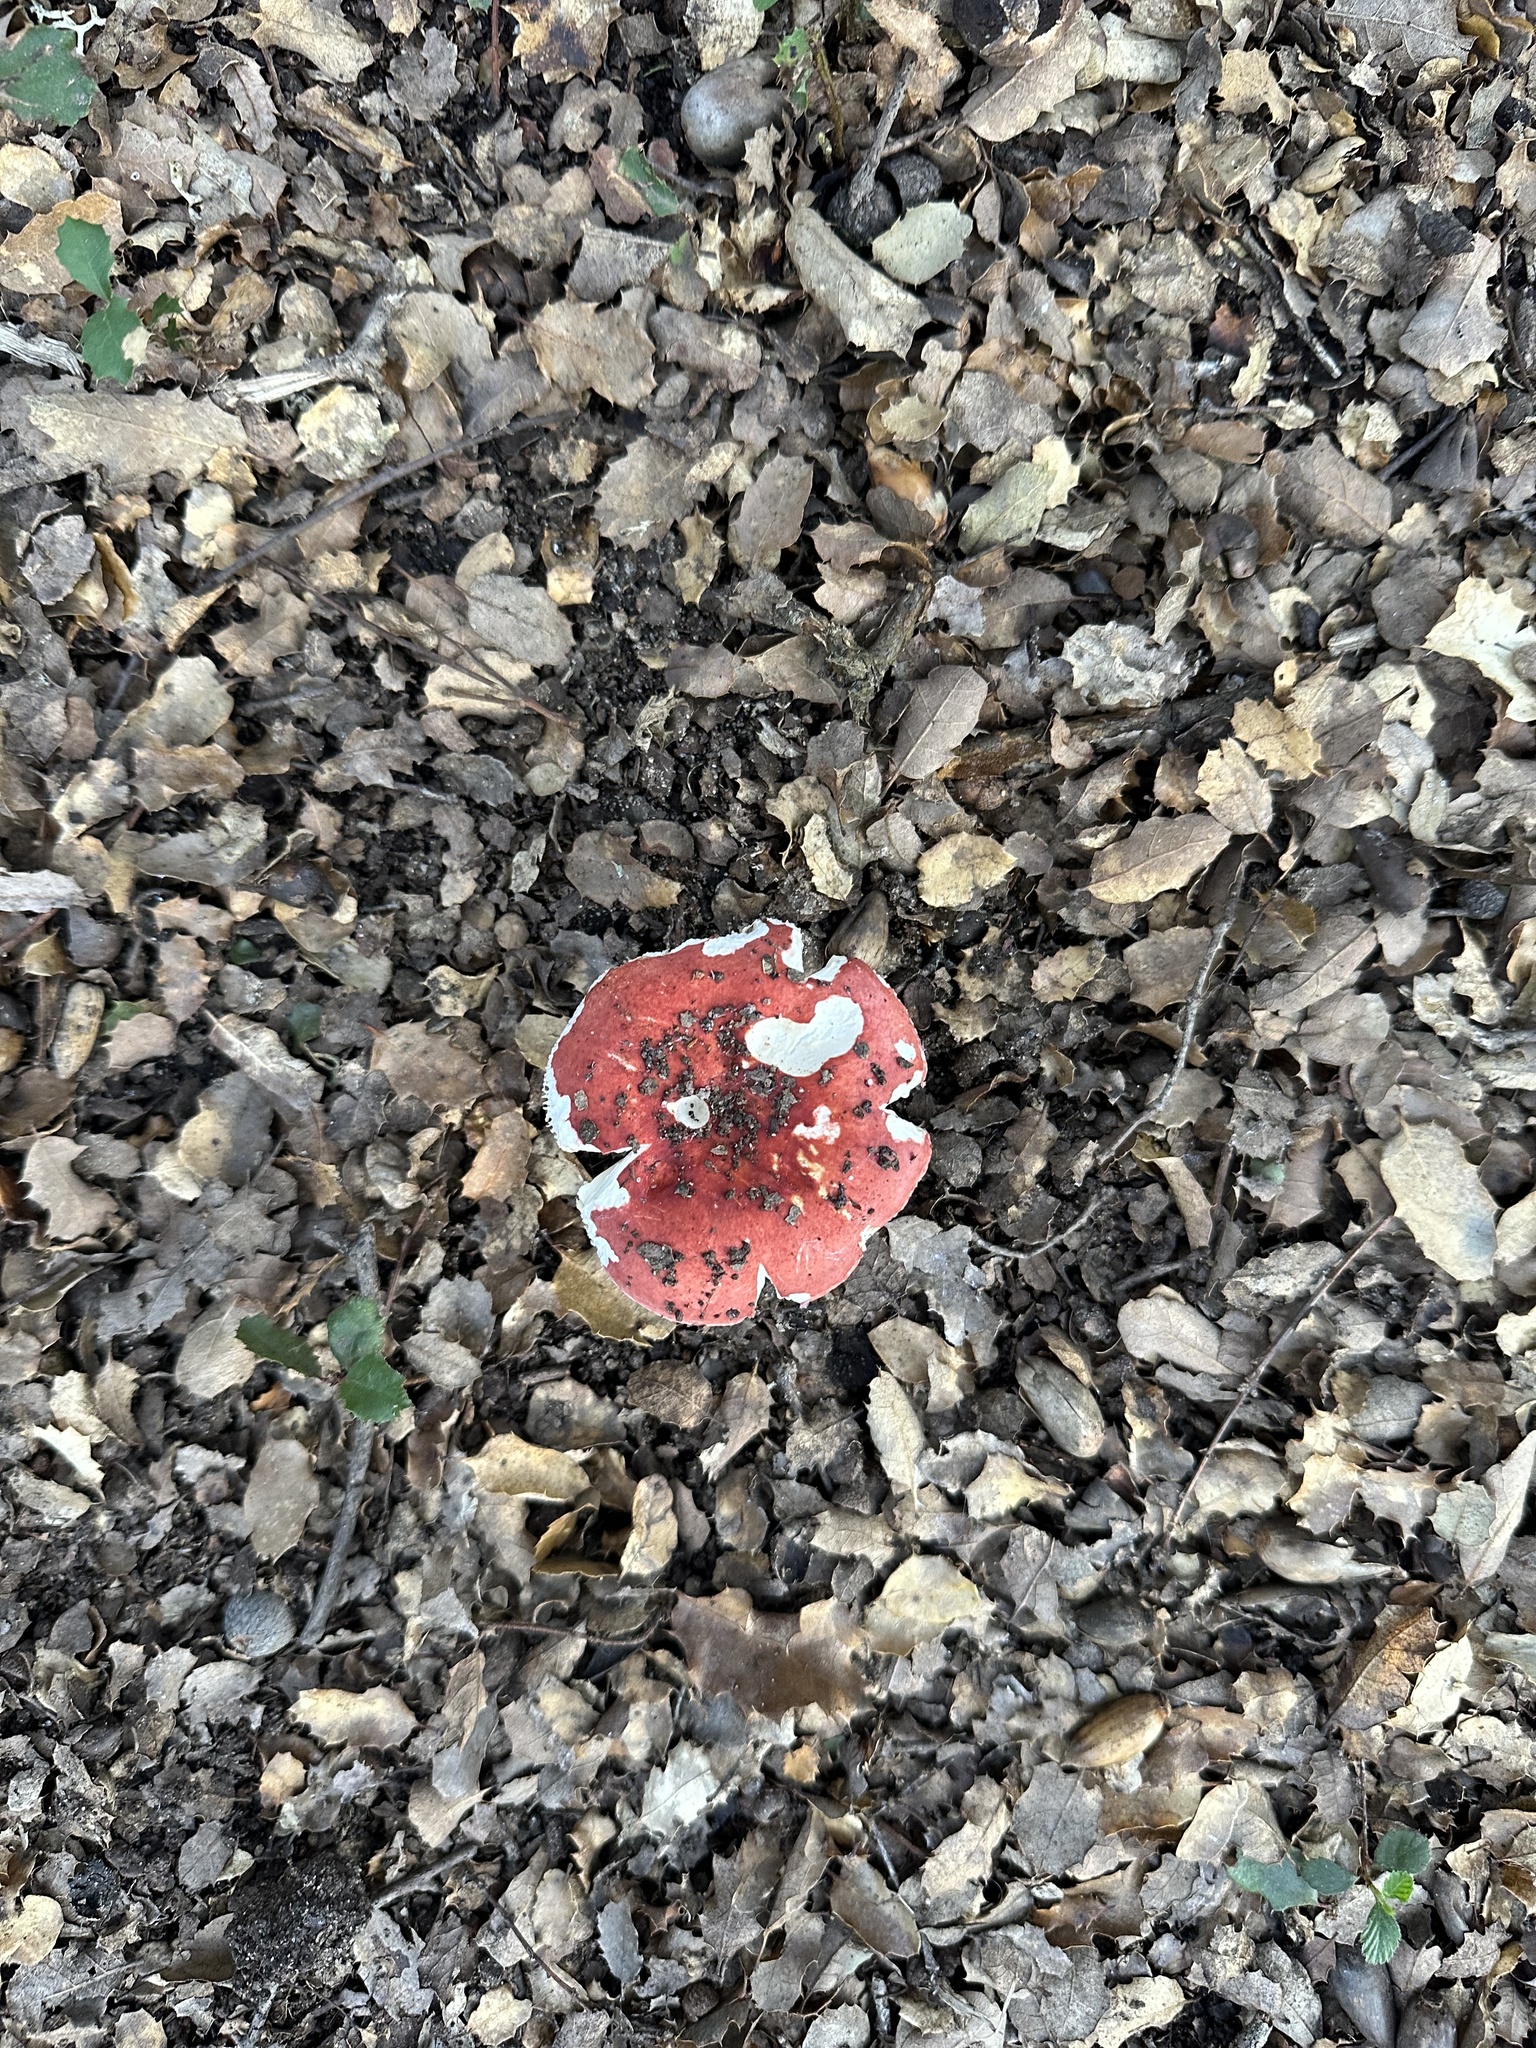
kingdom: Fungi
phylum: Basidiomycota
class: Agaricomycetes
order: Russulales
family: Russulaceae
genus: Russula
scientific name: Russula cremoricolor
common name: Winter russula
